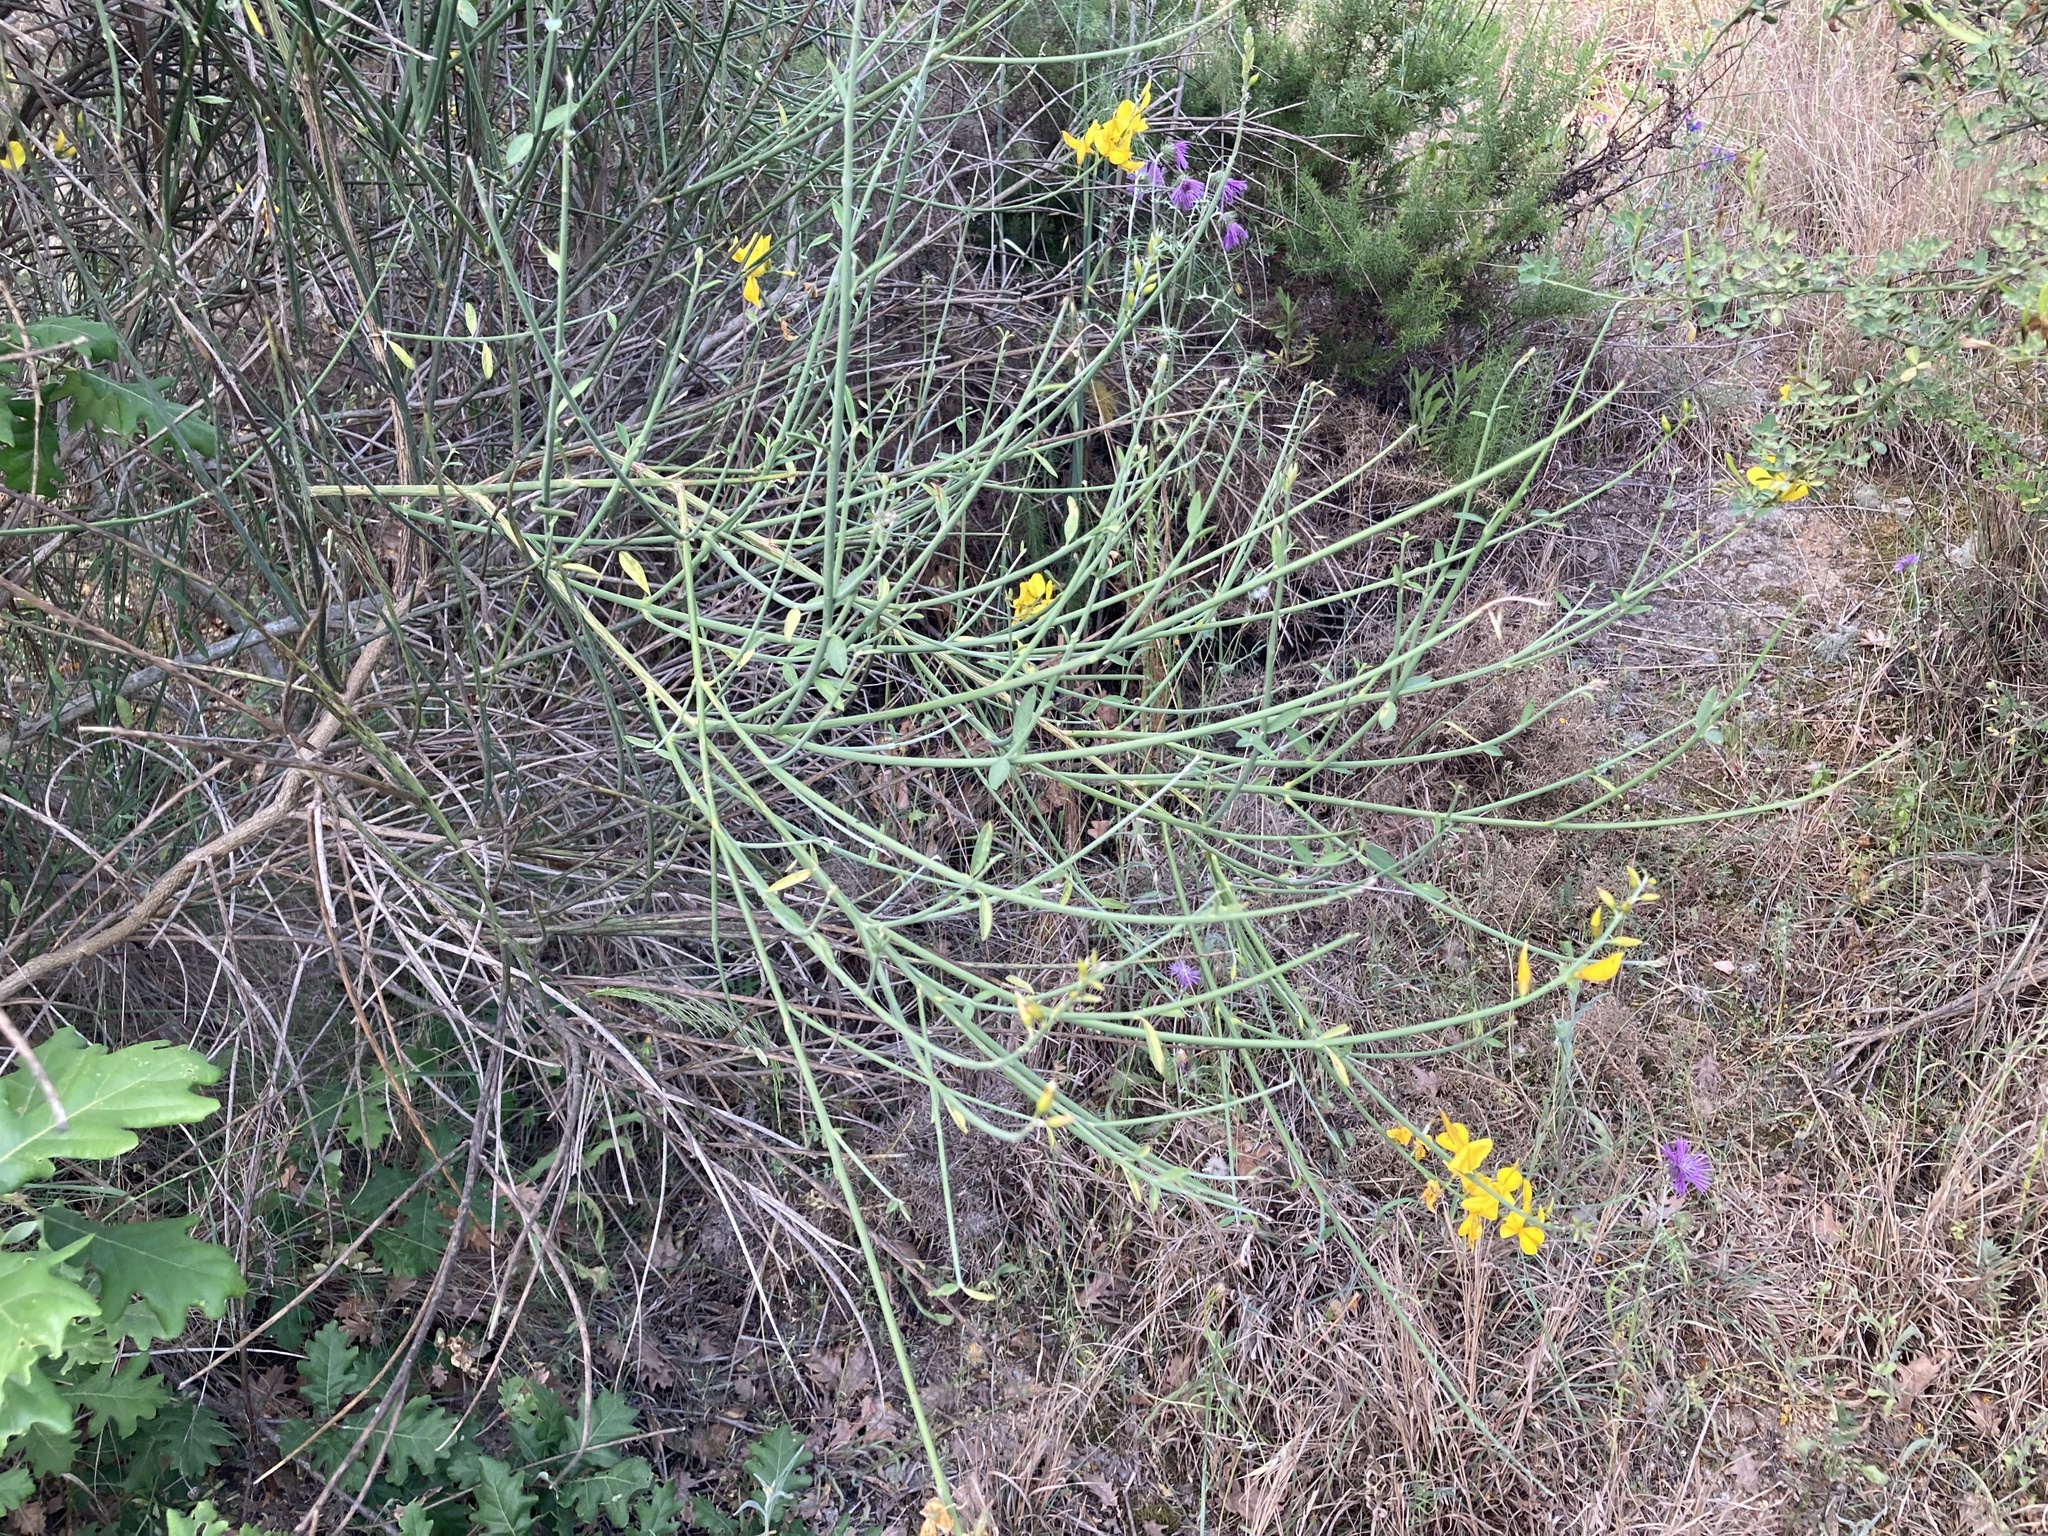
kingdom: Plantae
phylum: Tracheophyta
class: Magnoliopsida
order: Fabales
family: Fabaceae
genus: Spartium
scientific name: Spartium junceum
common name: Spanish broom
